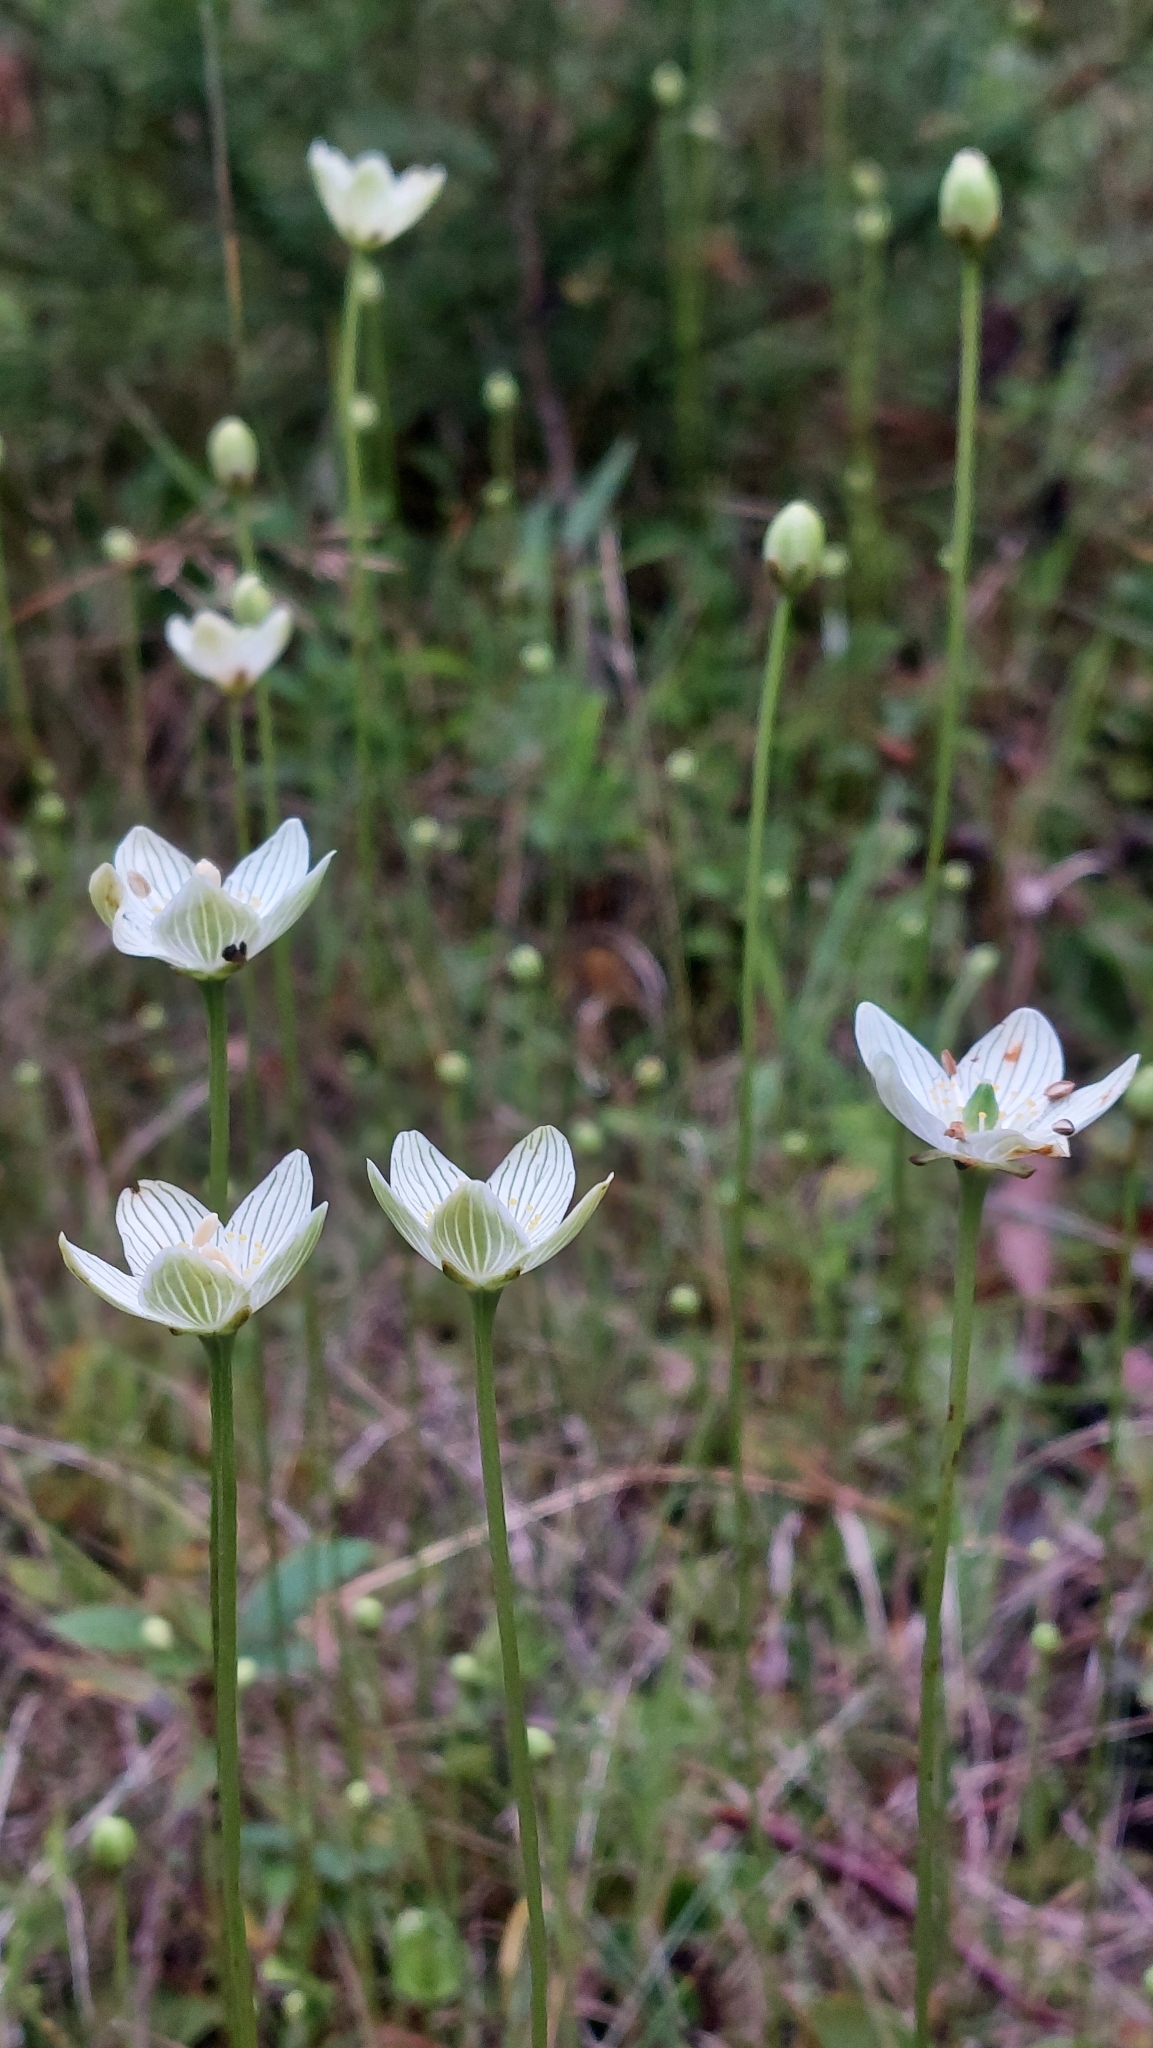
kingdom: Plantae
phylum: Tracheophyta
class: Magnoliopsida
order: Celastrales
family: Parnassiaceae
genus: Parnassia
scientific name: Parnassia glauca
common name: American grass-of-parnassus
